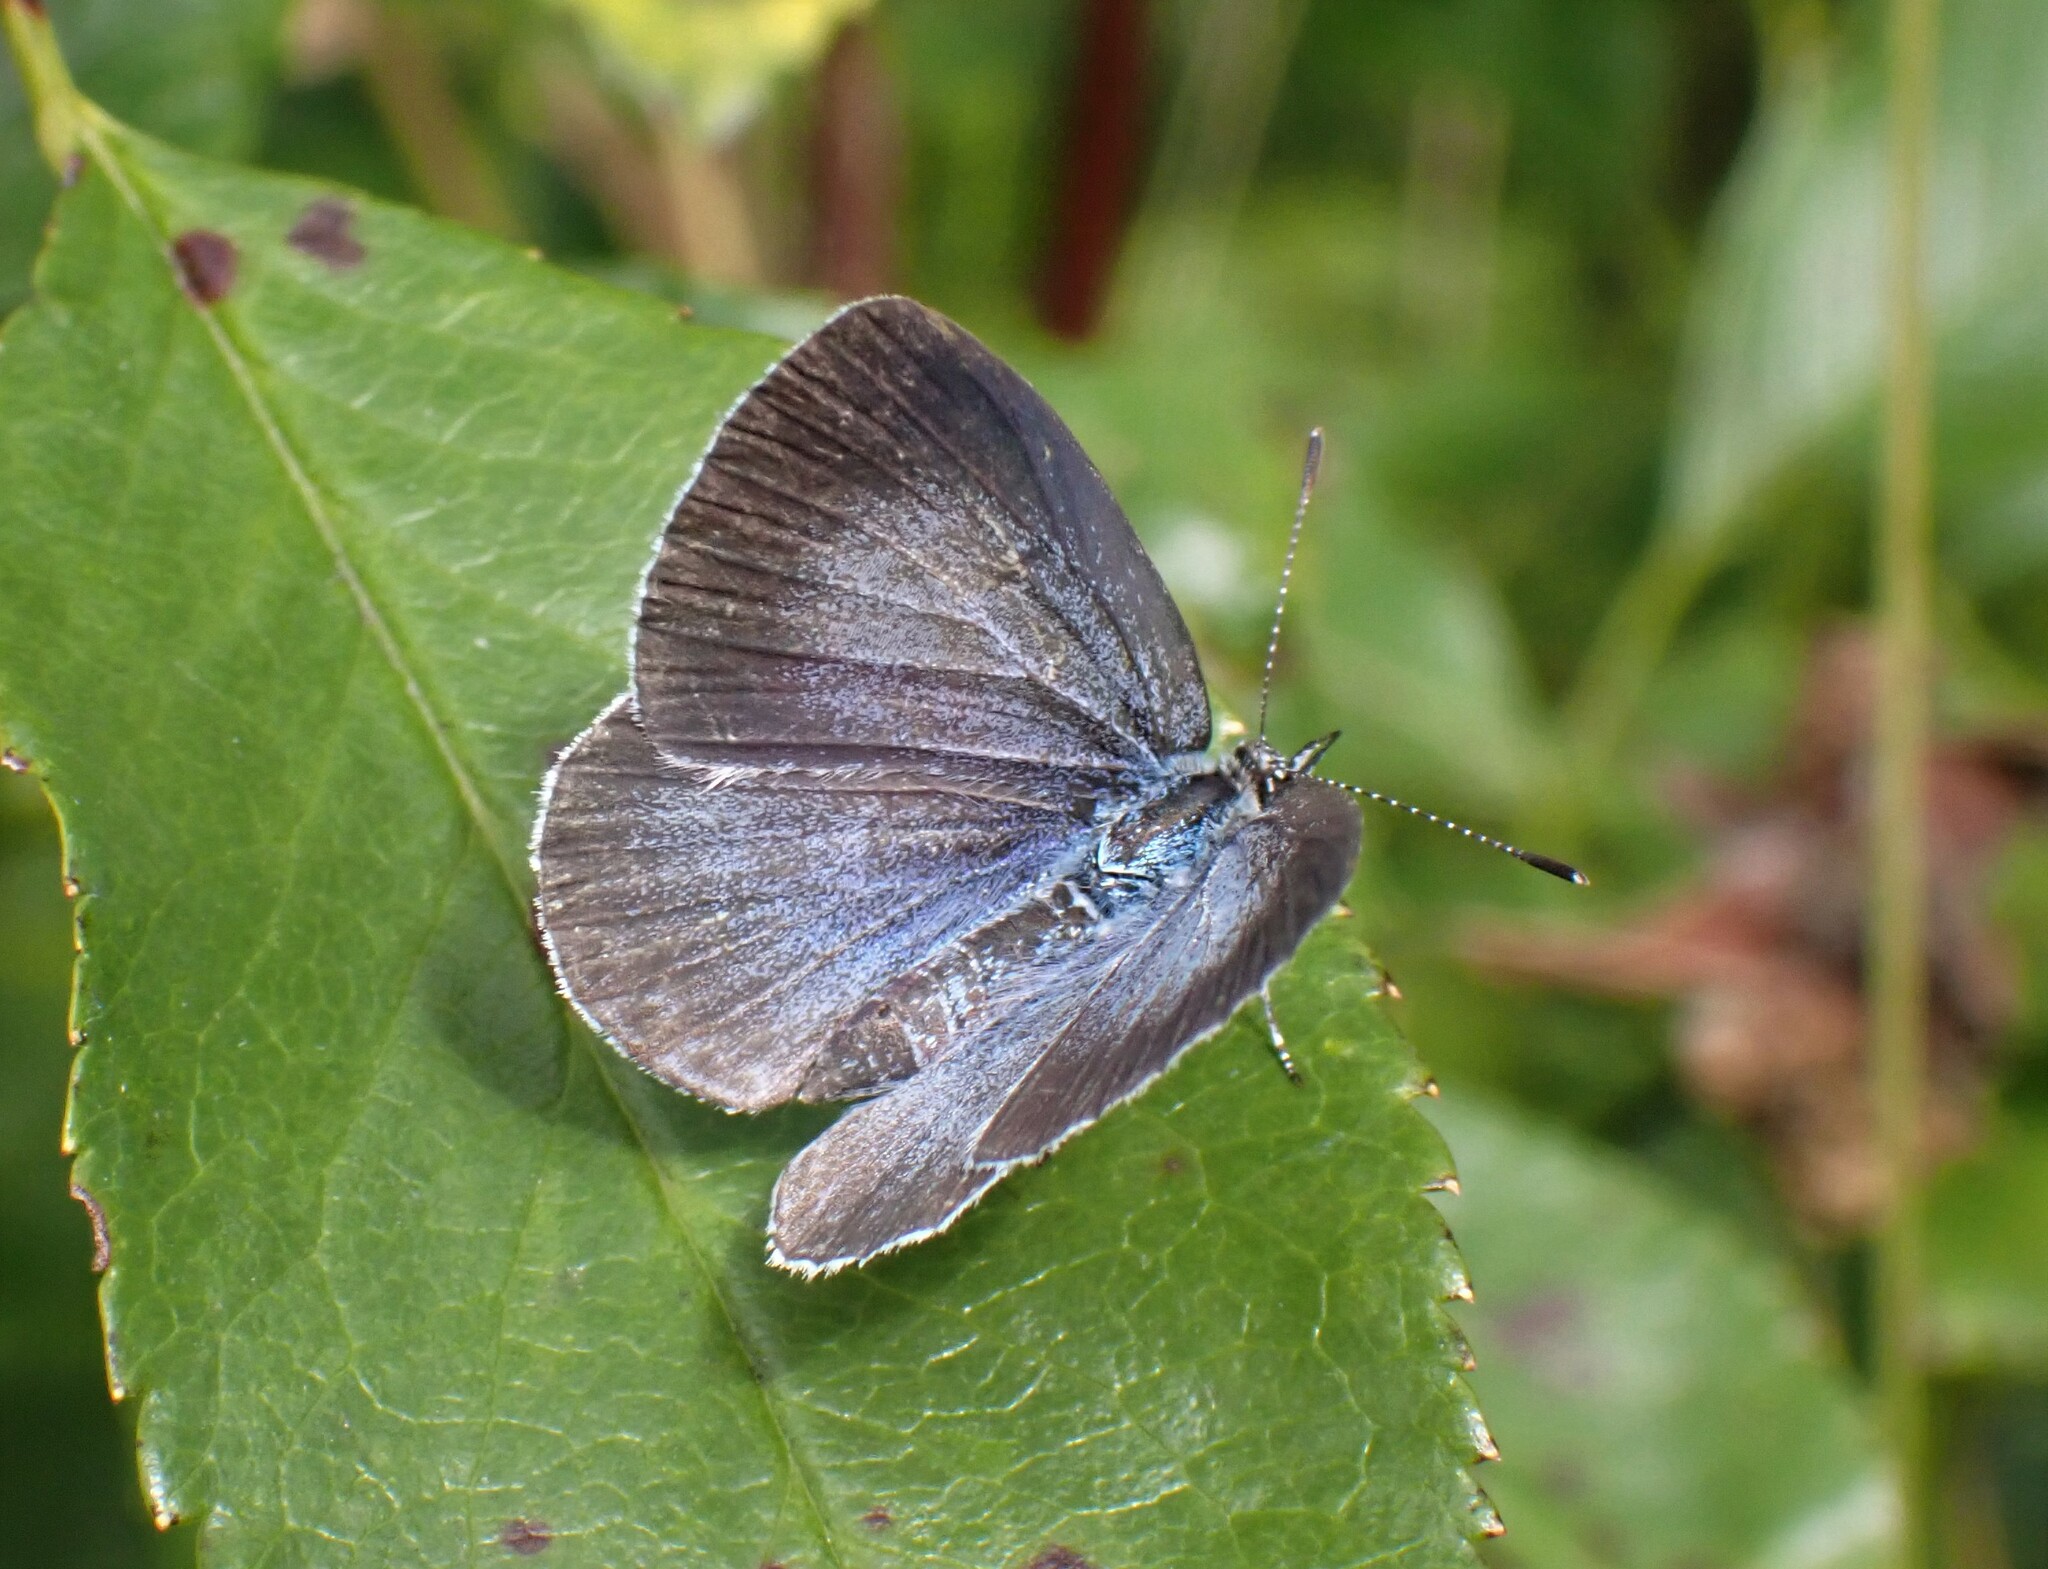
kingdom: Animalia
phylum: Arthropoda
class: Insecta
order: Lepidoptera
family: Lycaenidae
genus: Celastrina
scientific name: Celastrina argiolus
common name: Holly blue
